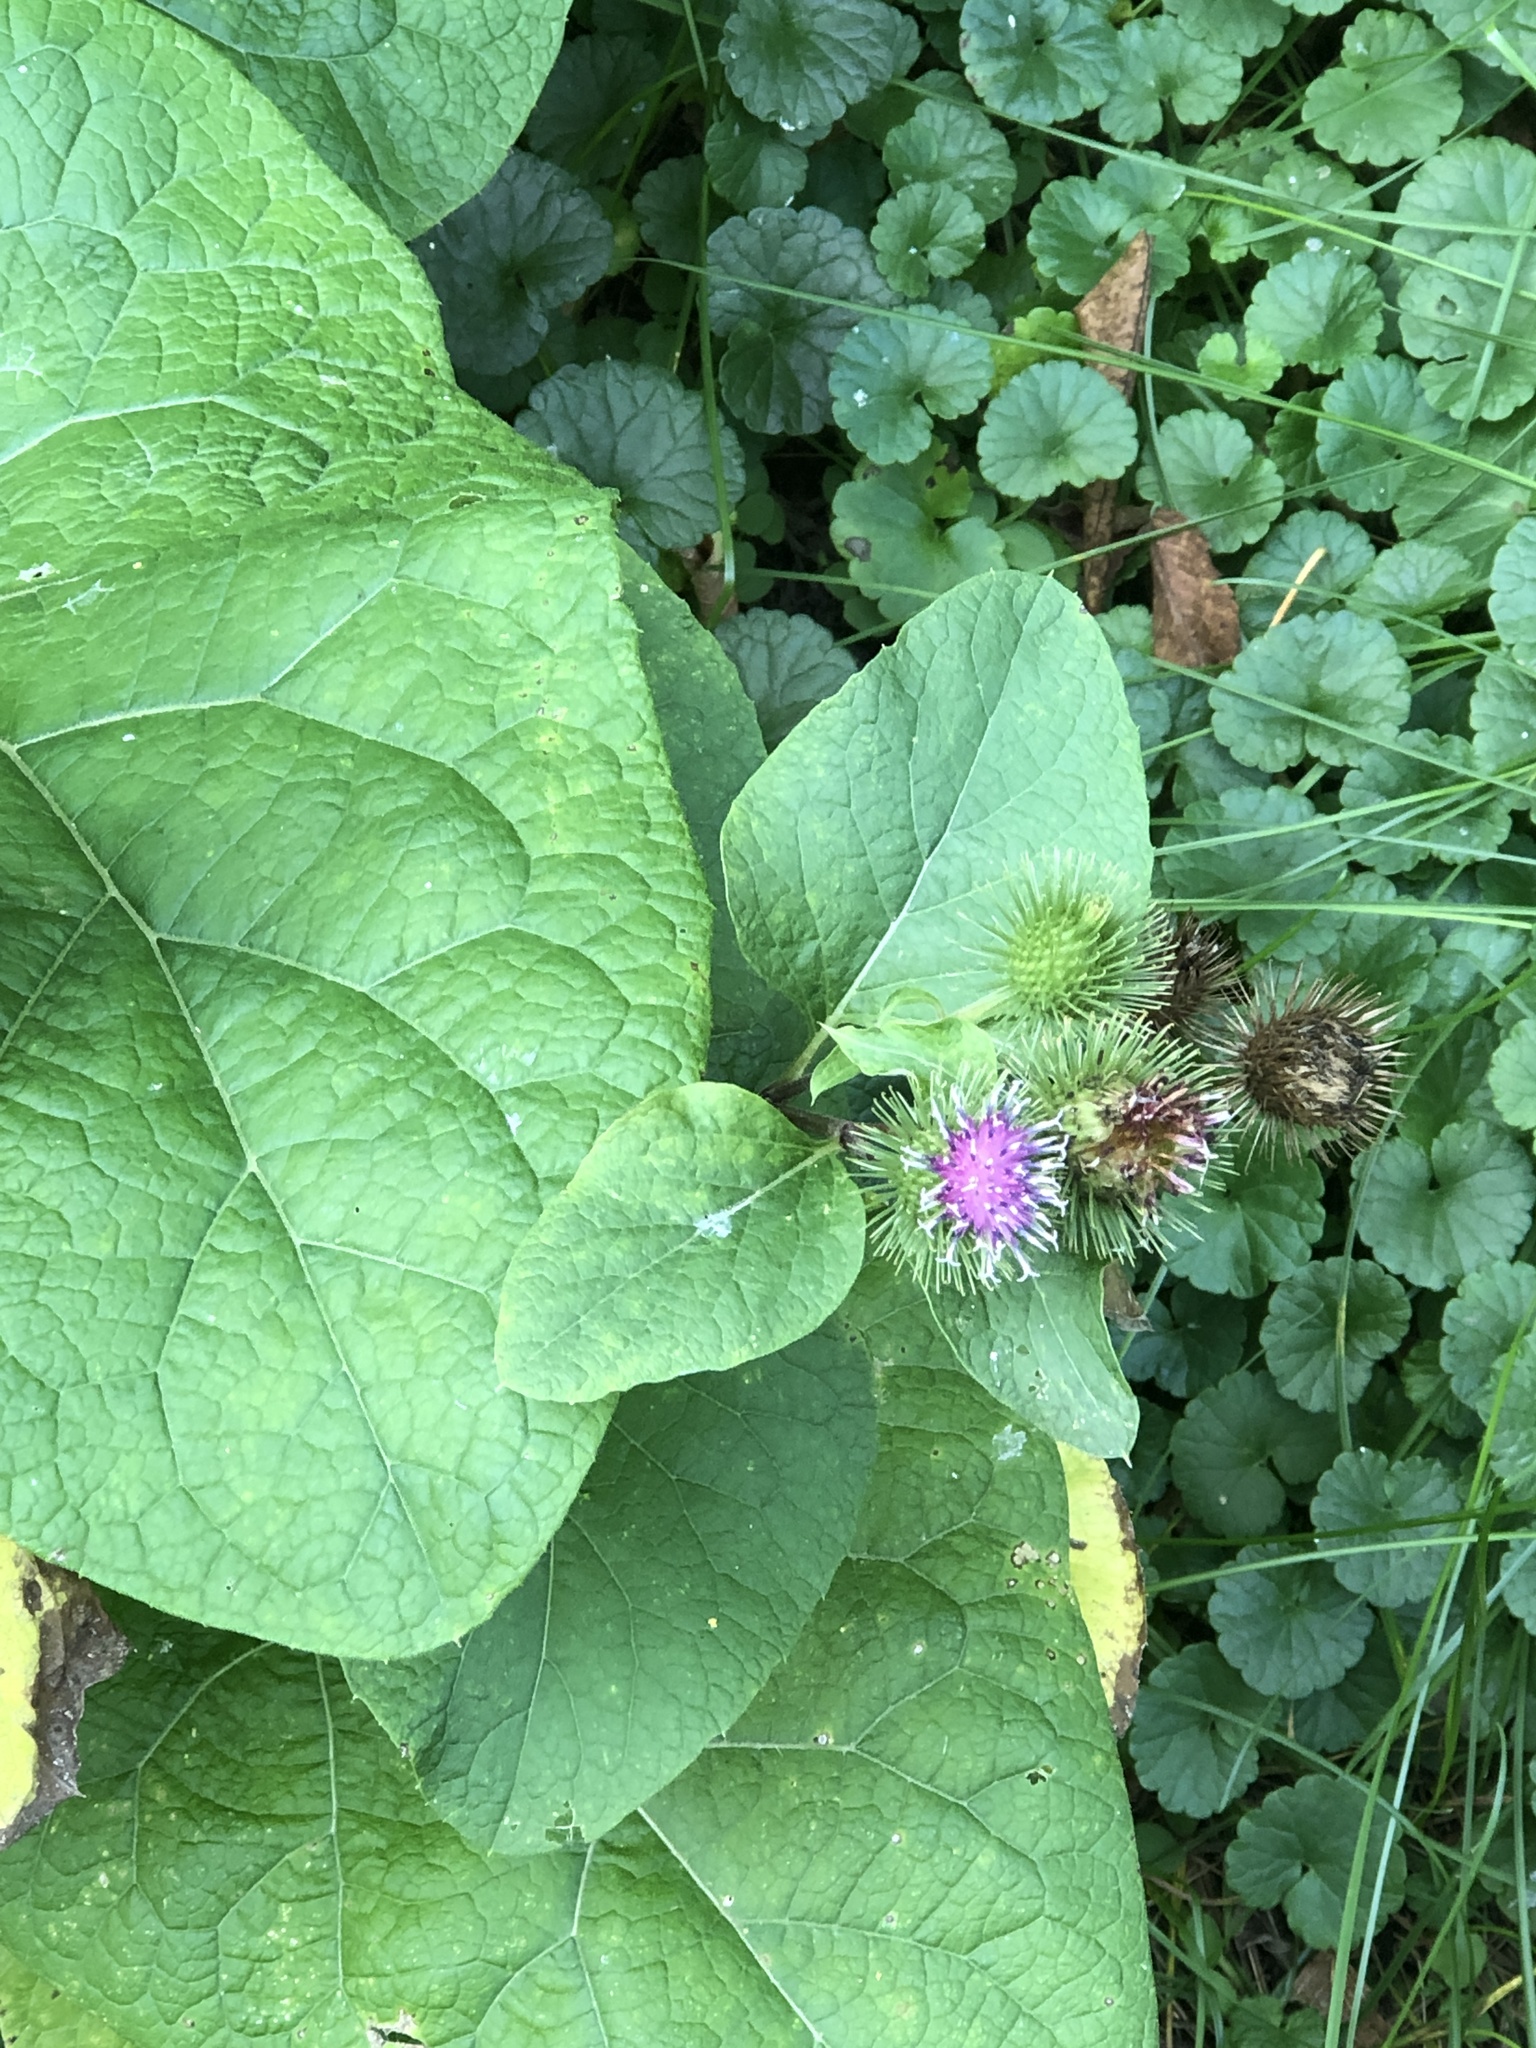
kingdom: Plantae
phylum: Tracheophyta
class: Magnoliopsida
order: Asterales
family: Asteraceae
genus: Arctium
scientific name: Arctium lappa
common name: Greater burdock
